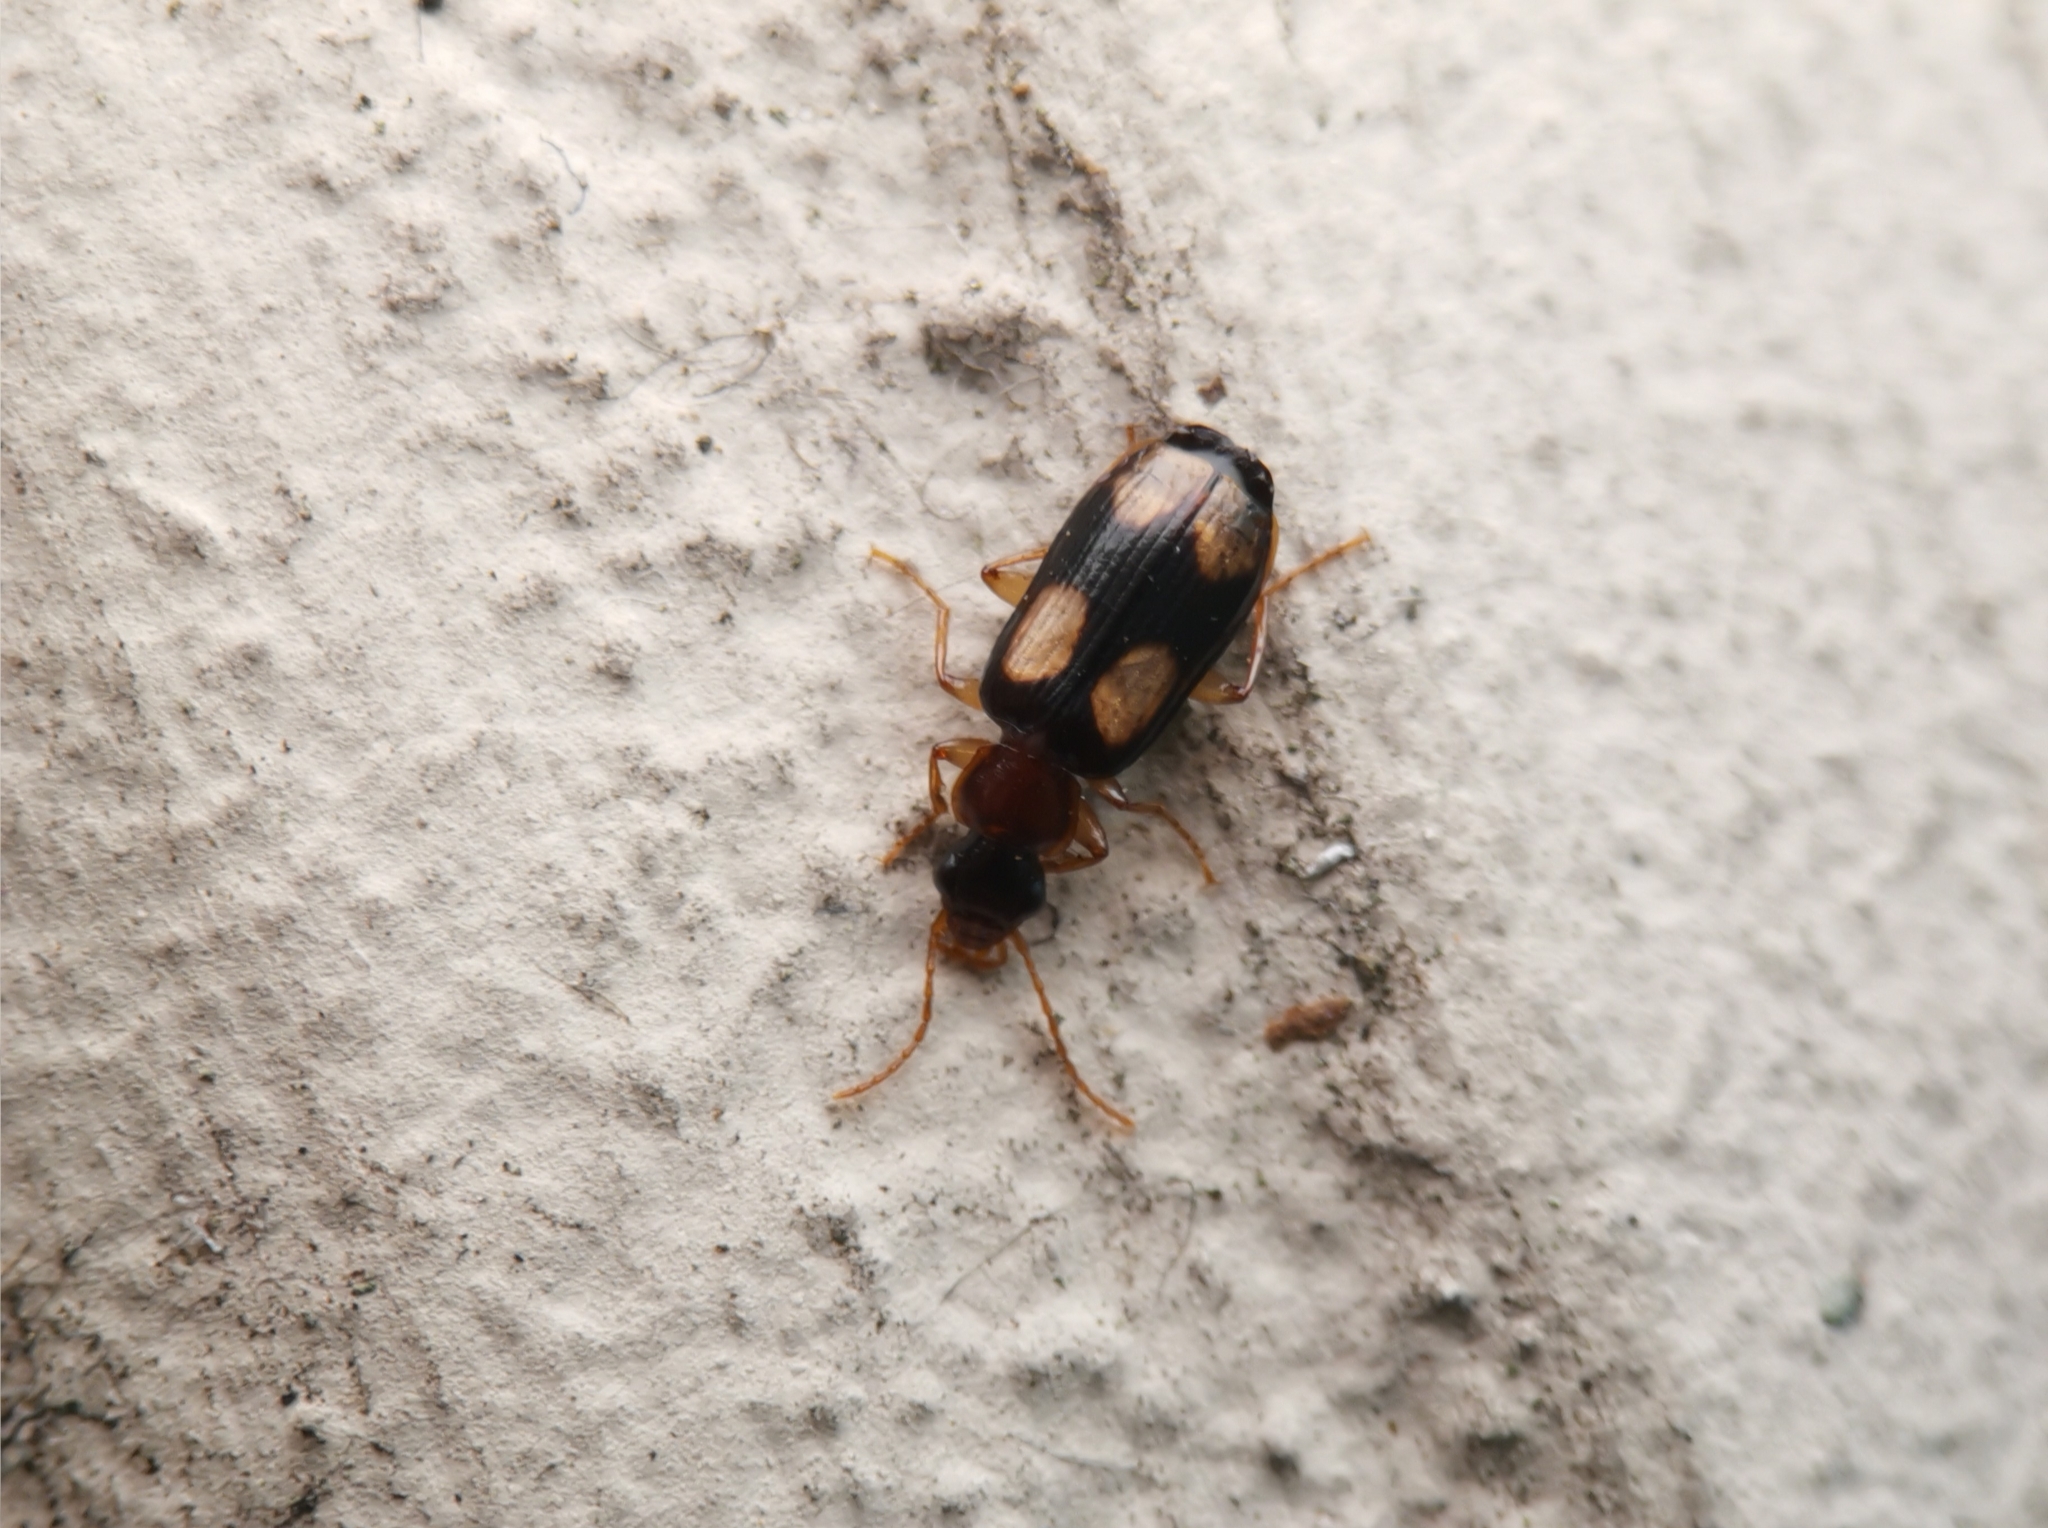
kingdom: Animalia
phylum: Arthropoda
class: Insecta
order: Coleoptera
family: Carabidae
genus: Dromius
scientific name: Dromius quadrimaculatus
